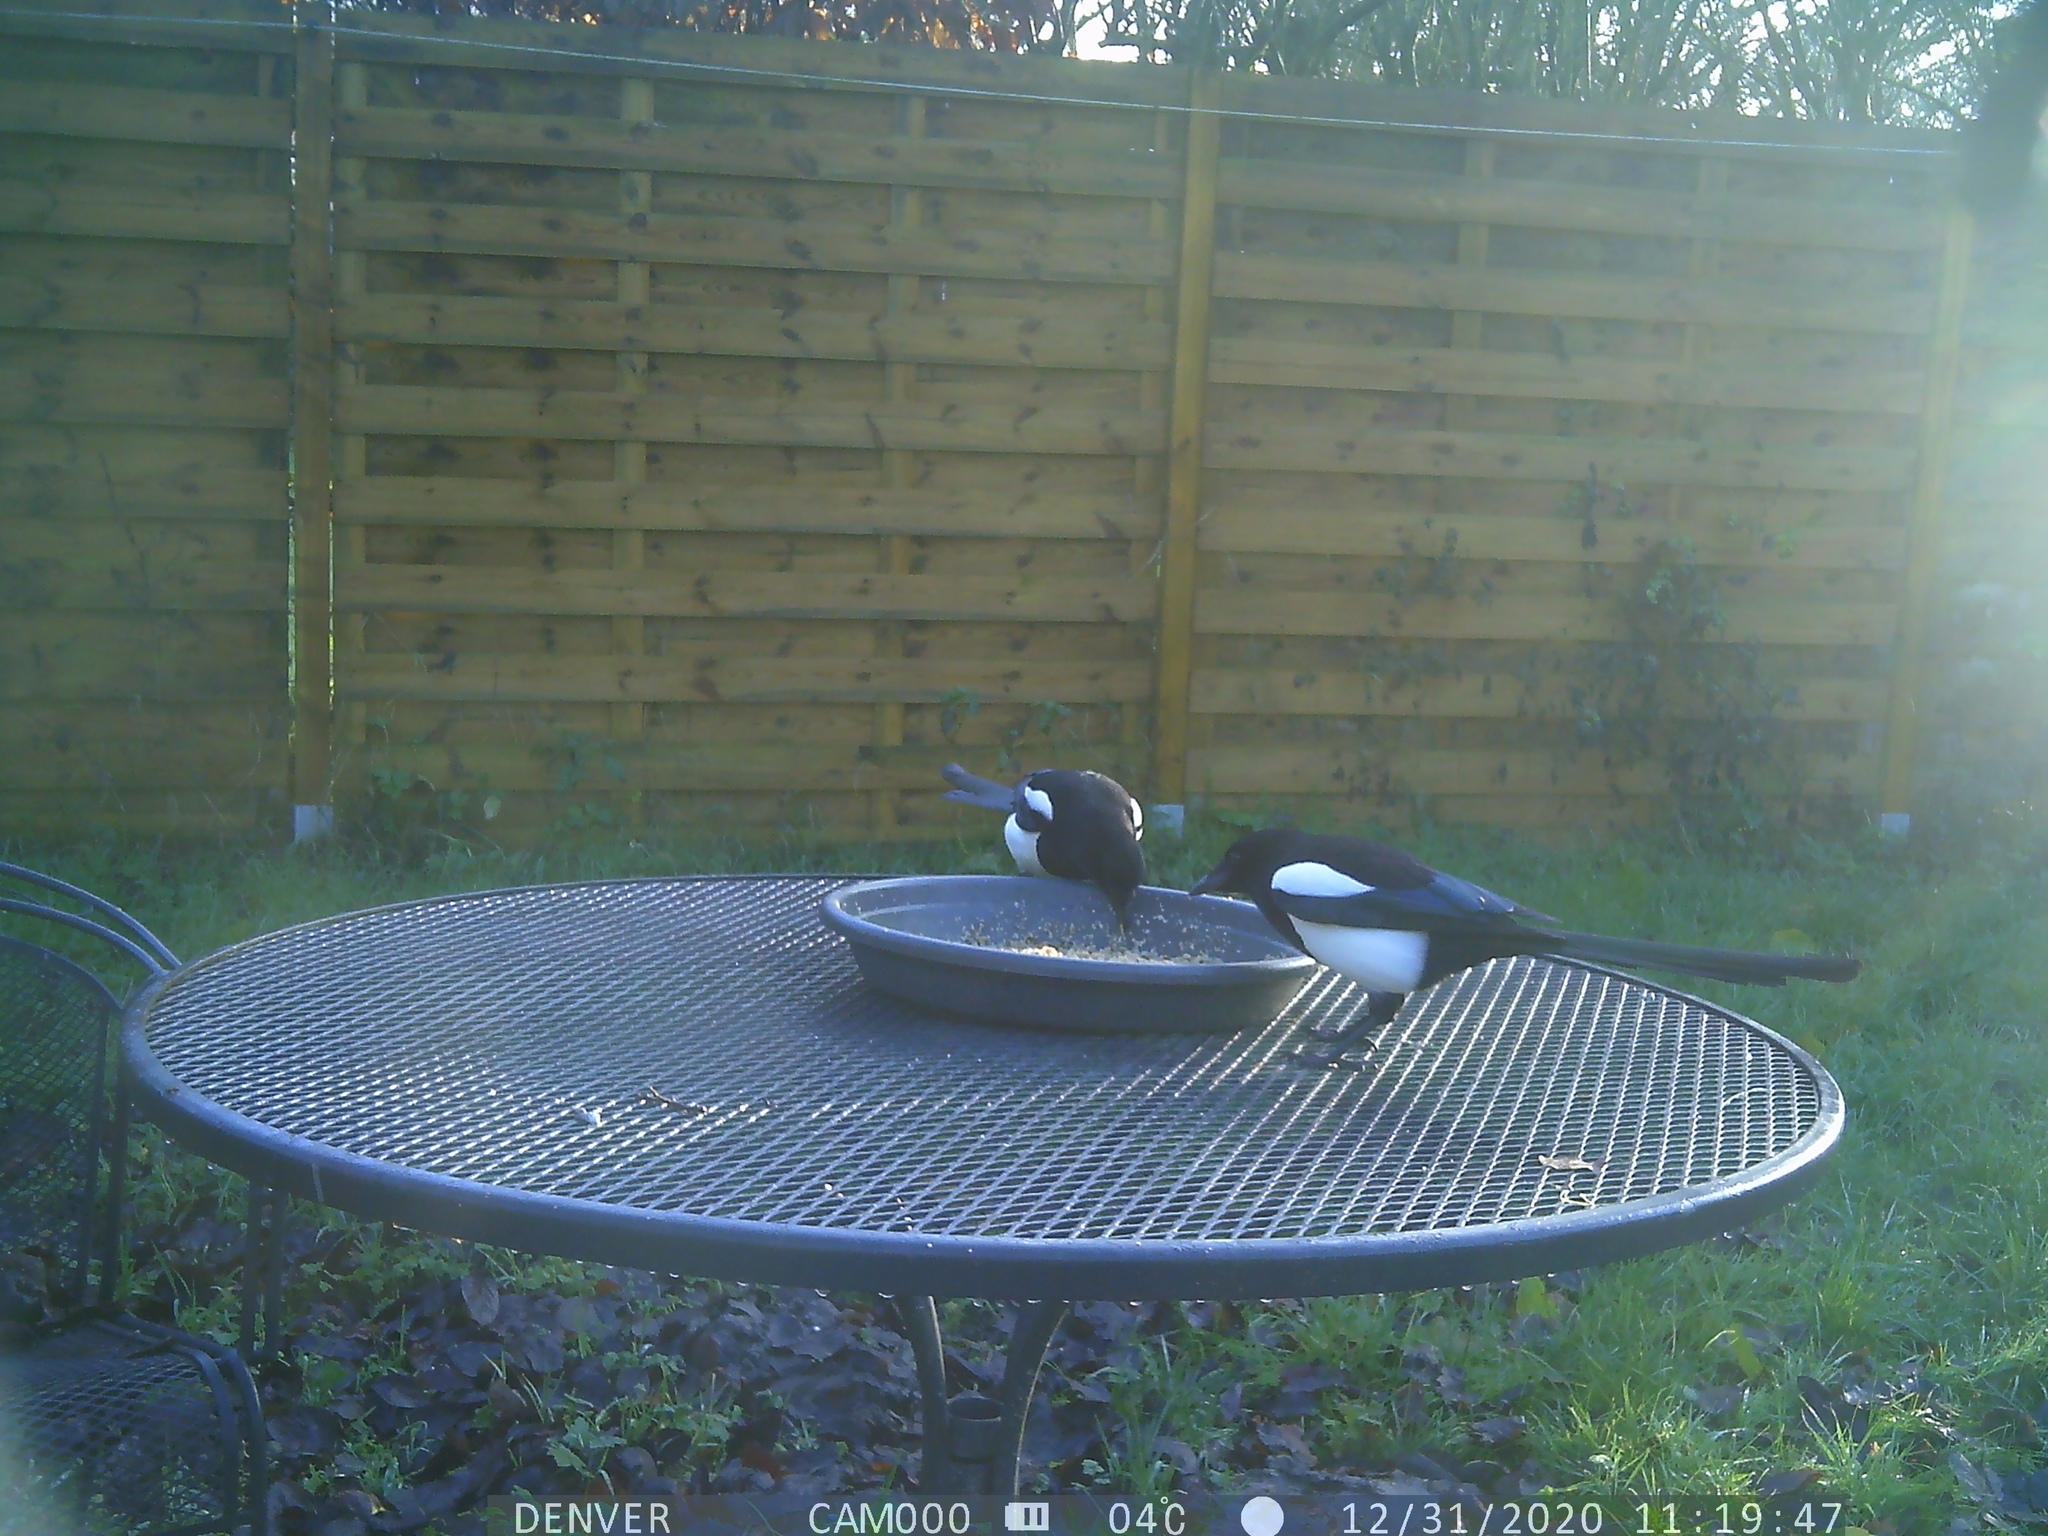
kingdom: Animalia
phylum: Chordata
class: Aves
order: Passeriformes
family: Corvidae
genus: Pica
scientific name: Pica pica
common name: Eurasian magpie
